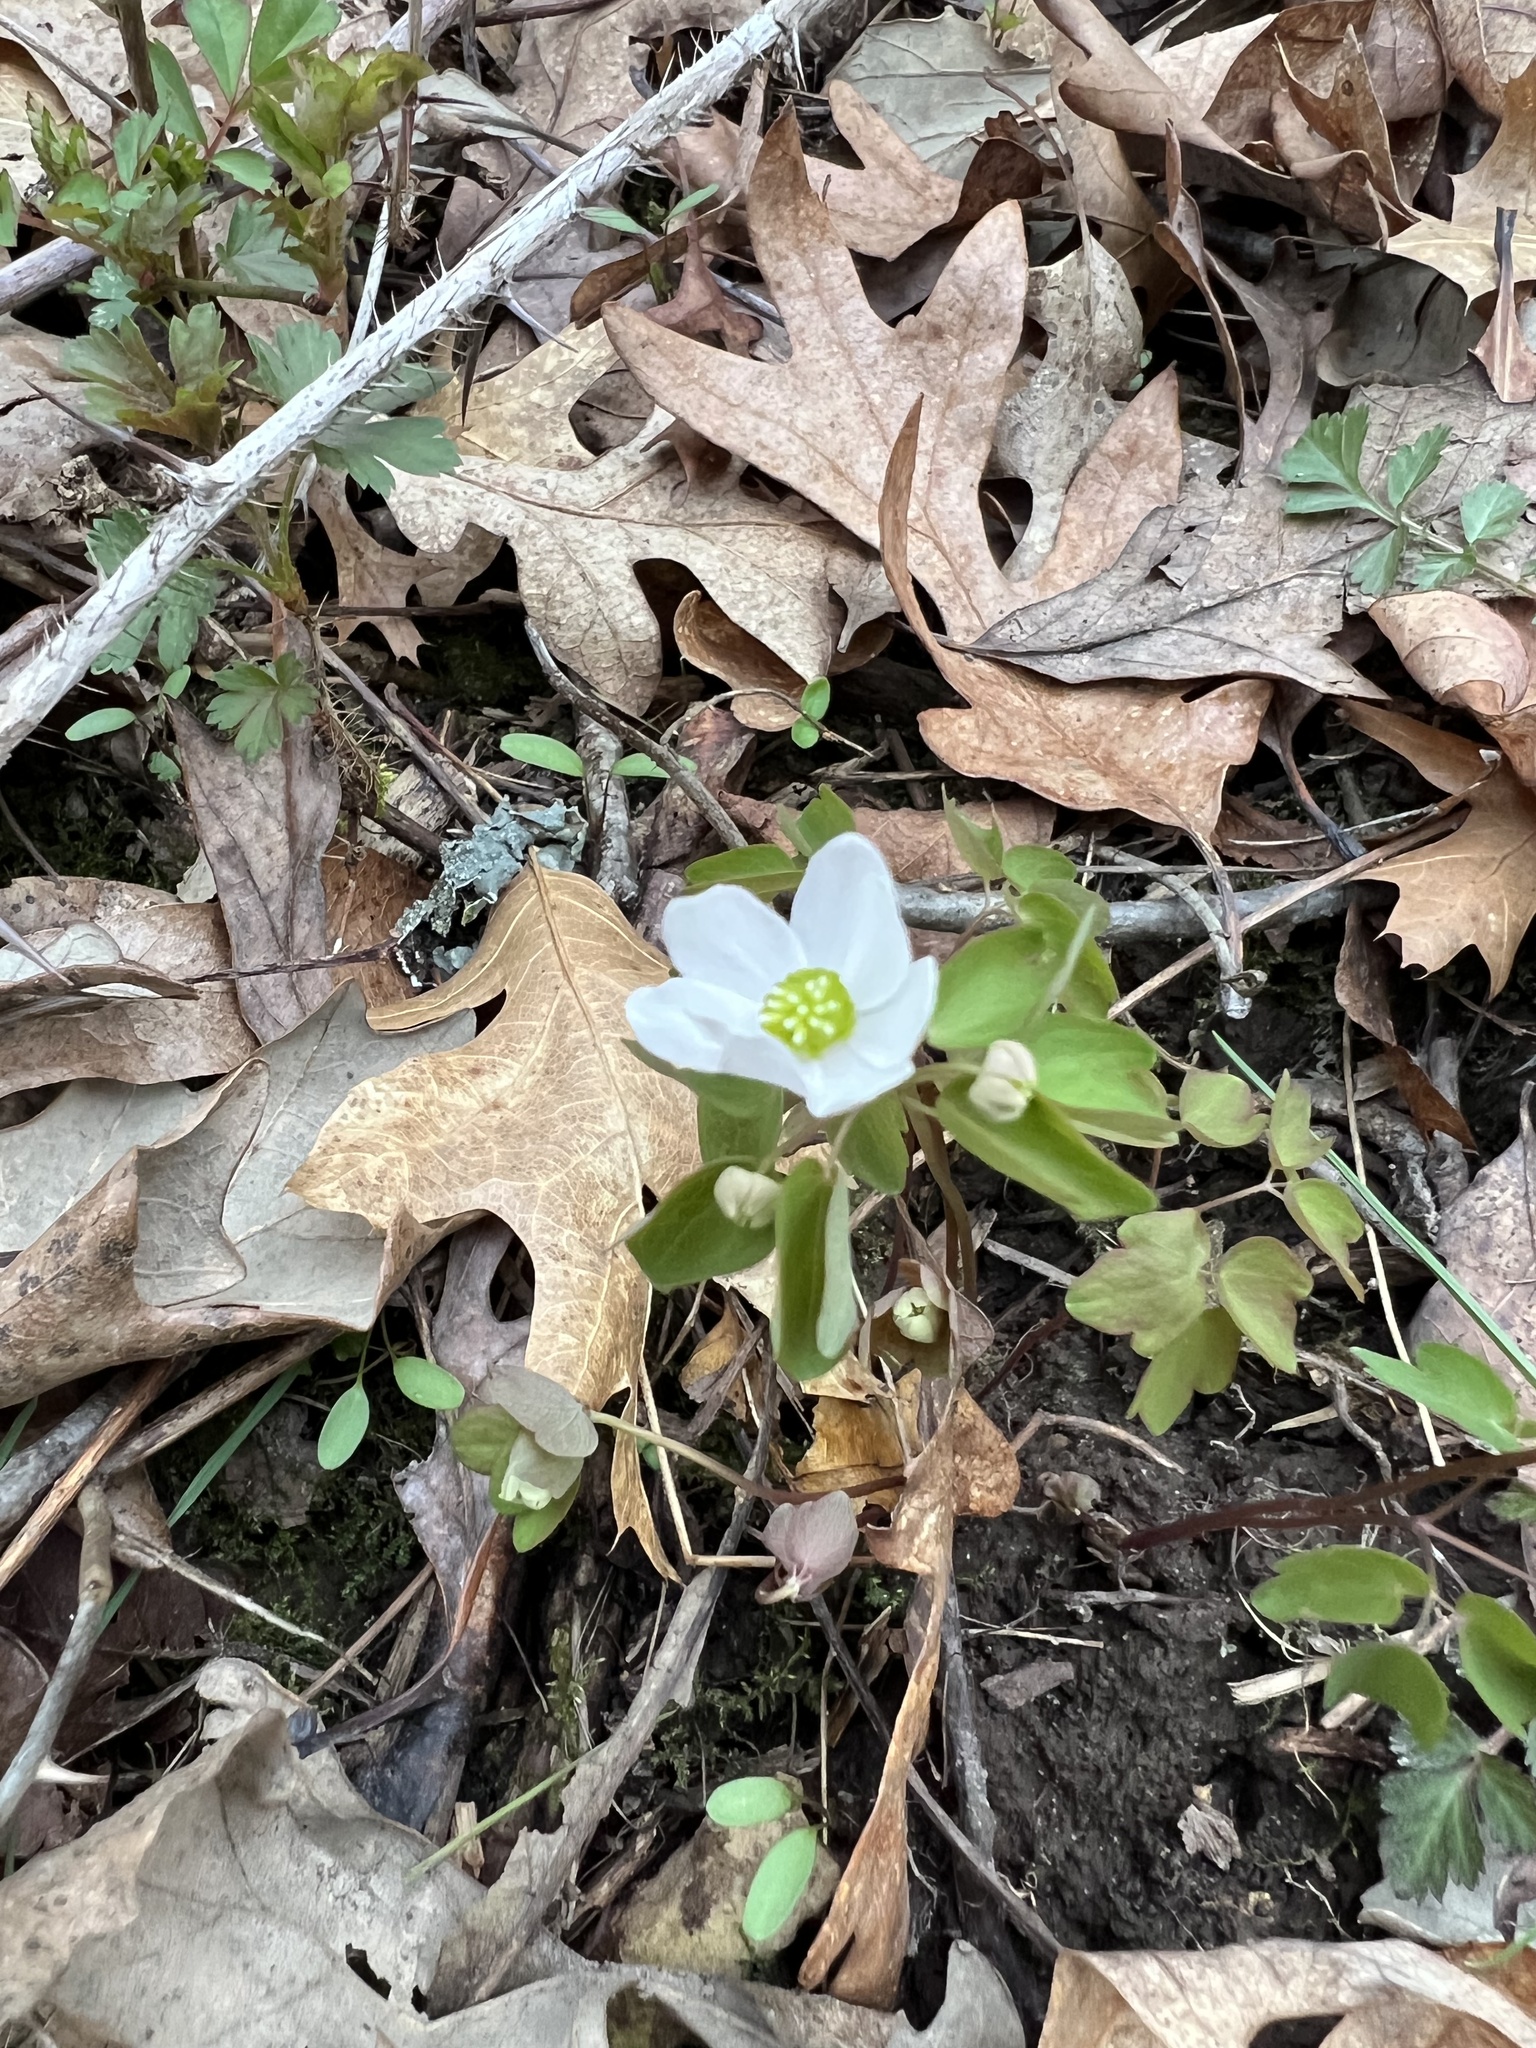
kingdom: Plantae
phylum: Tracheophyta
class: Magnoliopsida
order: Ranunculales
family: Ranunculaceae
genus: Thalictrum
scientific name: Thalictrum thalictroides
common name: Rue-anemone
